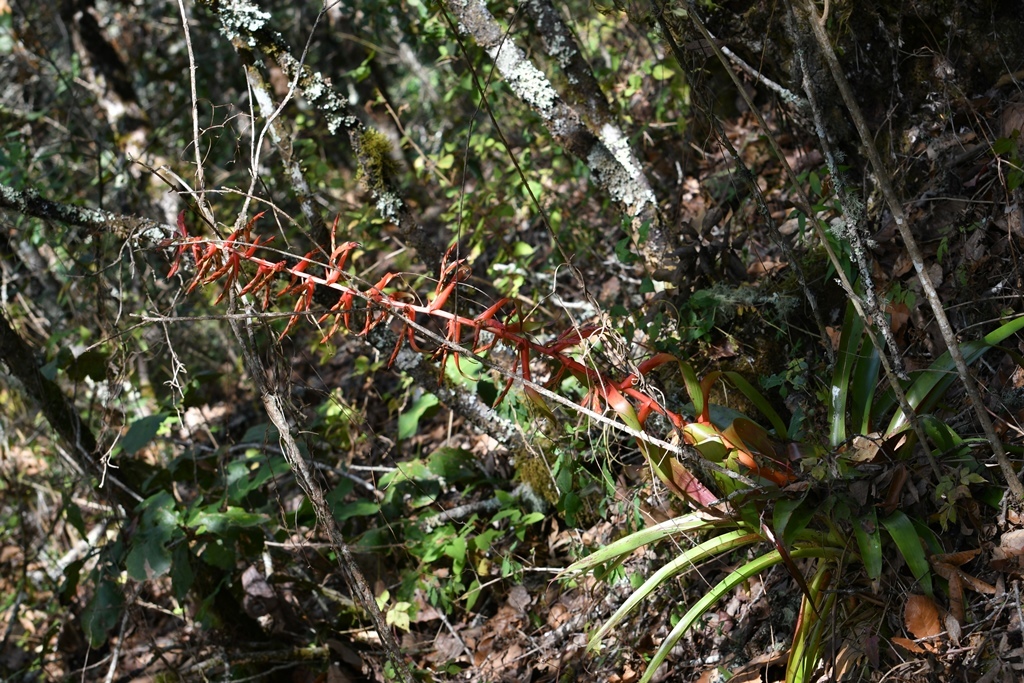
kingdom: Plantae
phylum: Tracheophyta
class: Liliopsida
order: Poales
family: Bromeliaceae
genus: Tillandsia
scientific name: Tillandsia guatemalensis
